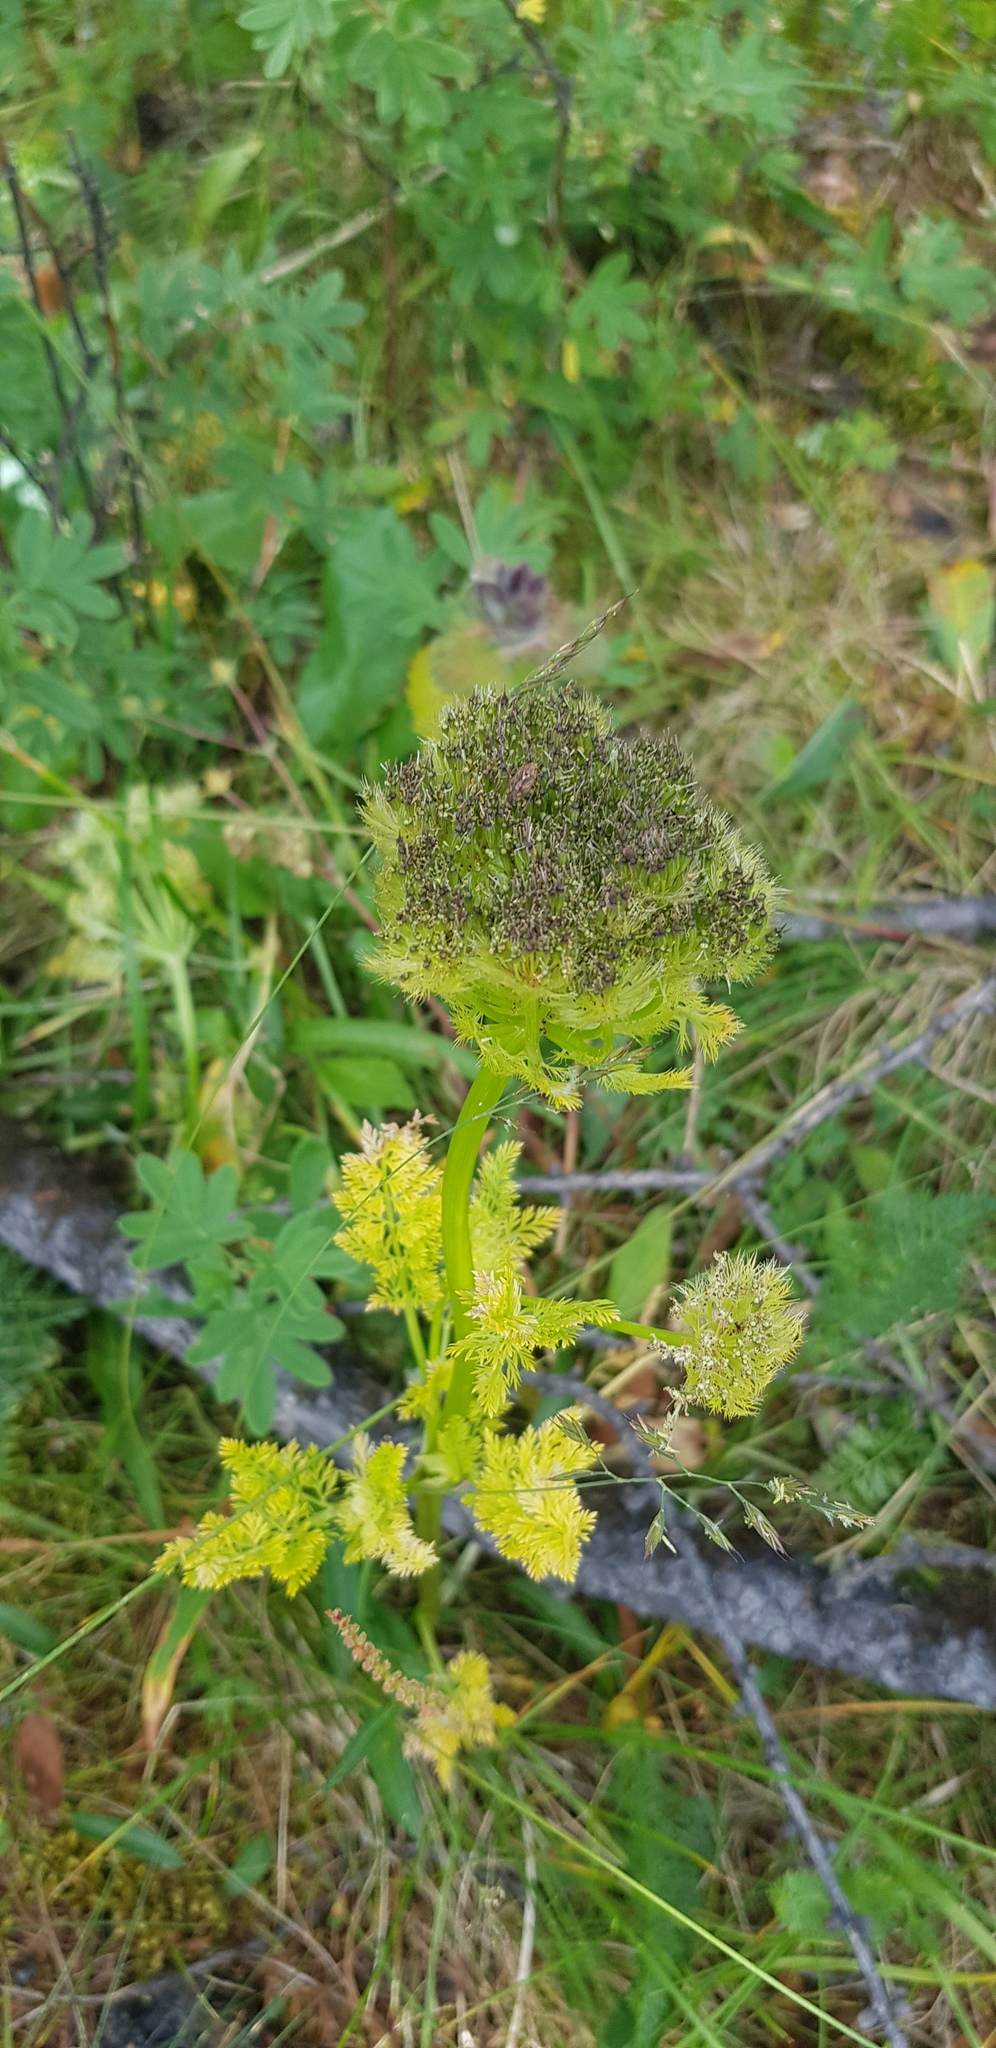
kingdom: Plantae
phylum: Tracheophyta
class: Magnoliopsida
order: Apiales
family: Apiaceae
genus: Schulzia
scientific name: Schulzia crinita
